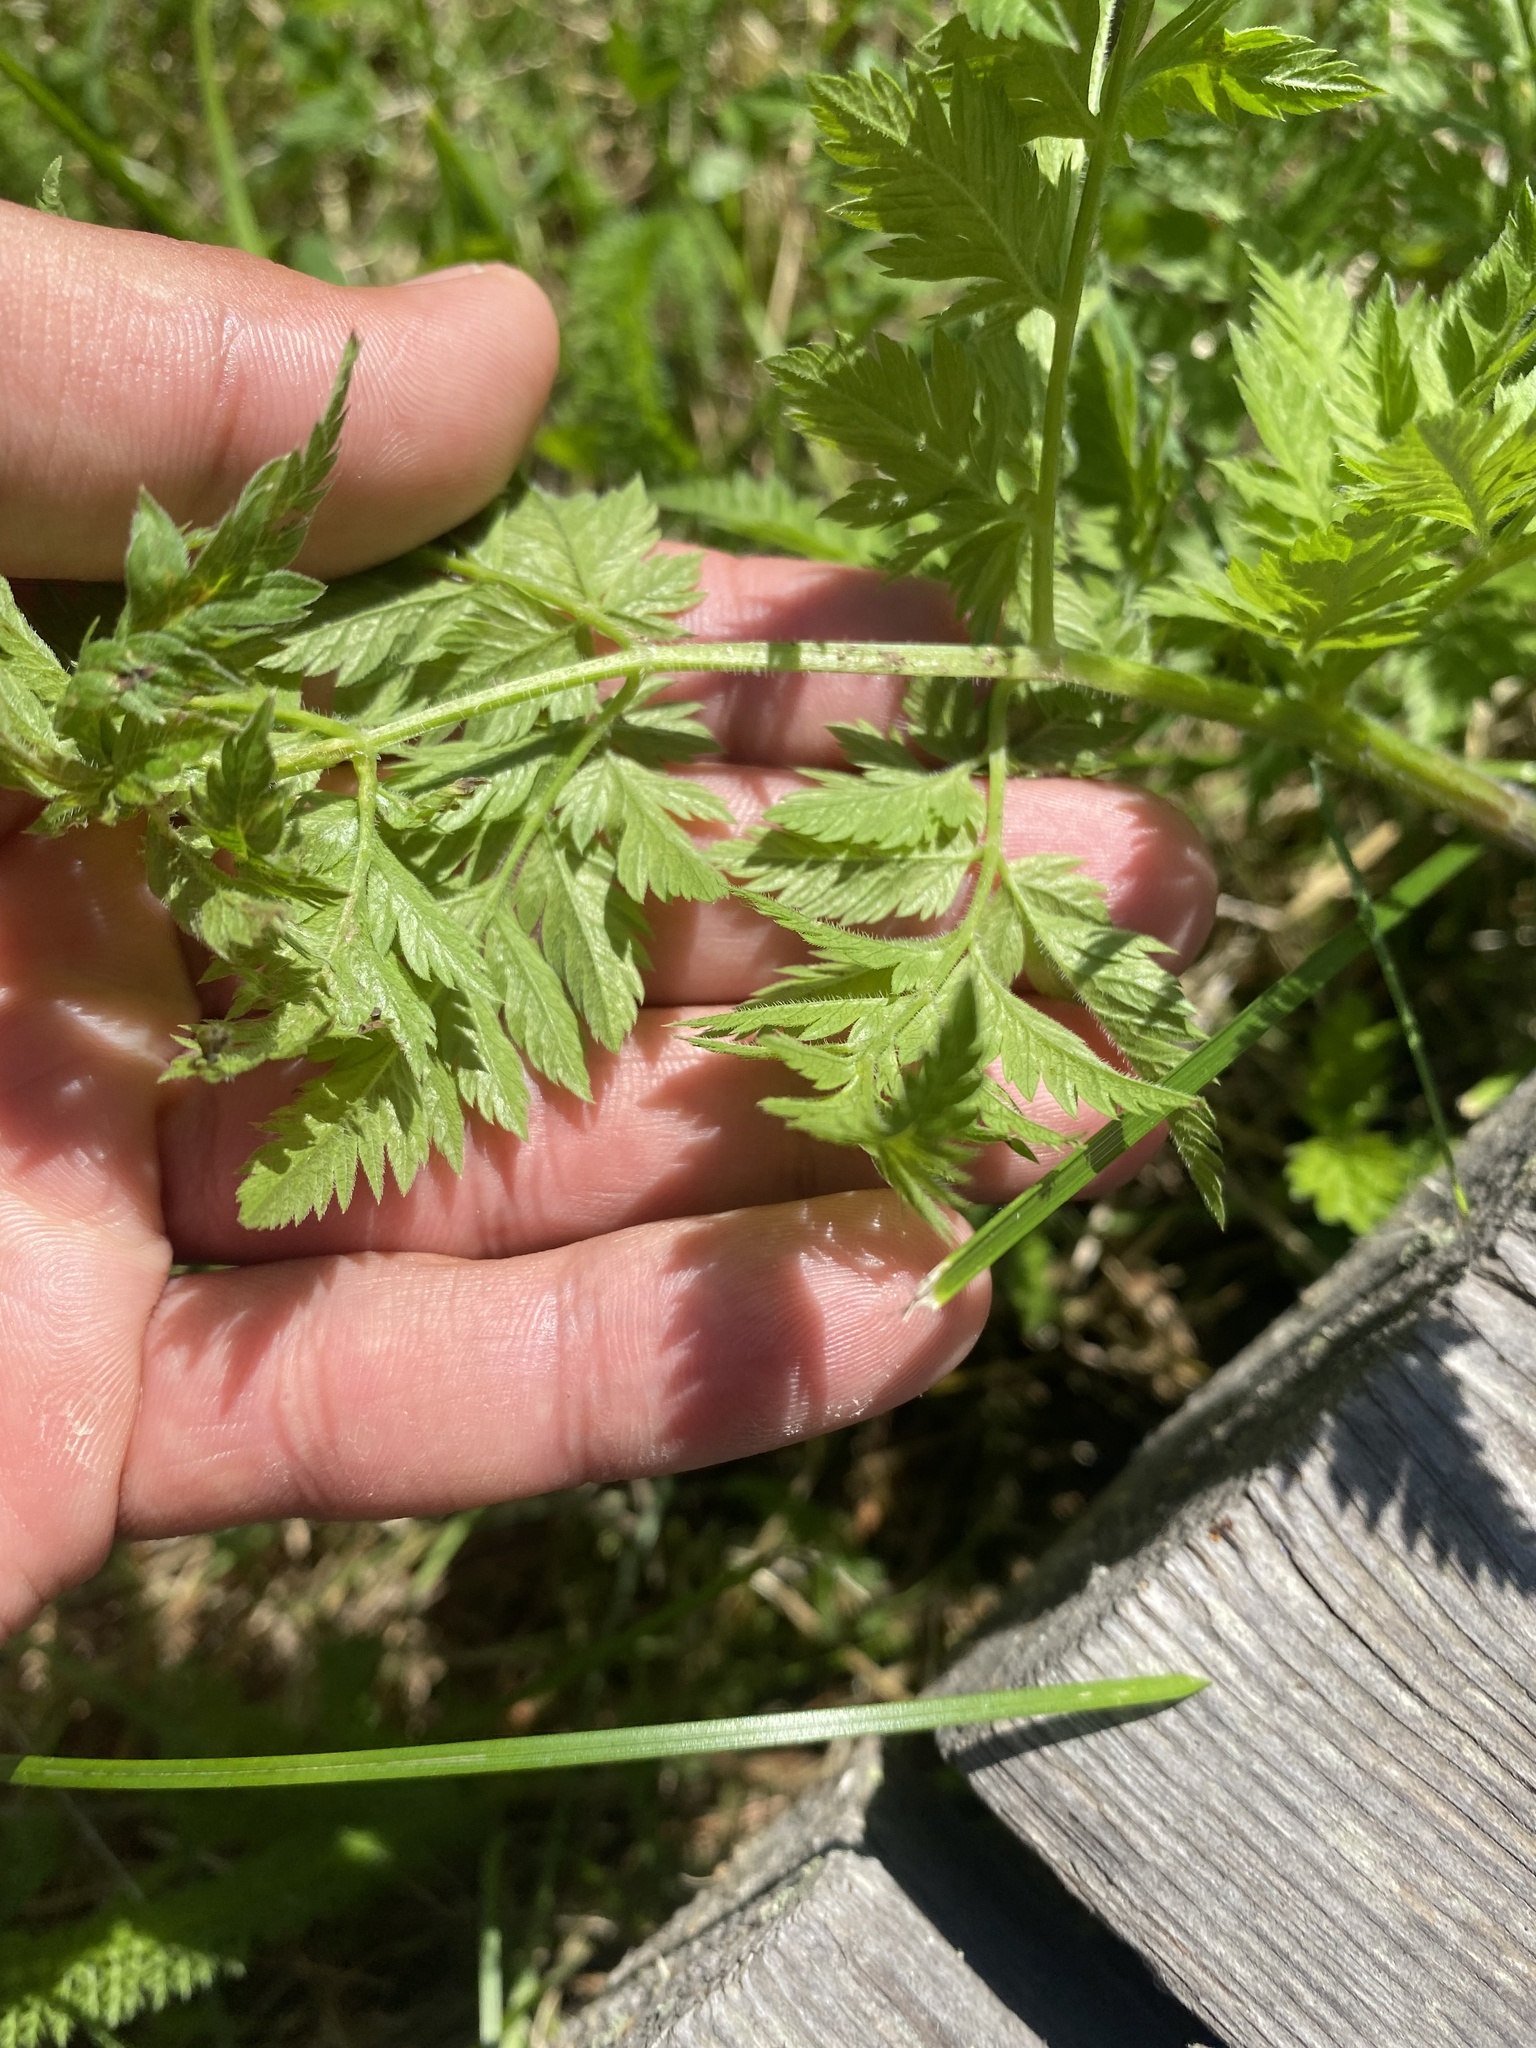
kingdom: Plantae
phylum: Tracheophyta
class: Magnoliopsida
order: Apiales
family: Apiaceae
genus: Anthriscus
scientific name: Anthriscus sylvestris
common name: Cow parsley
